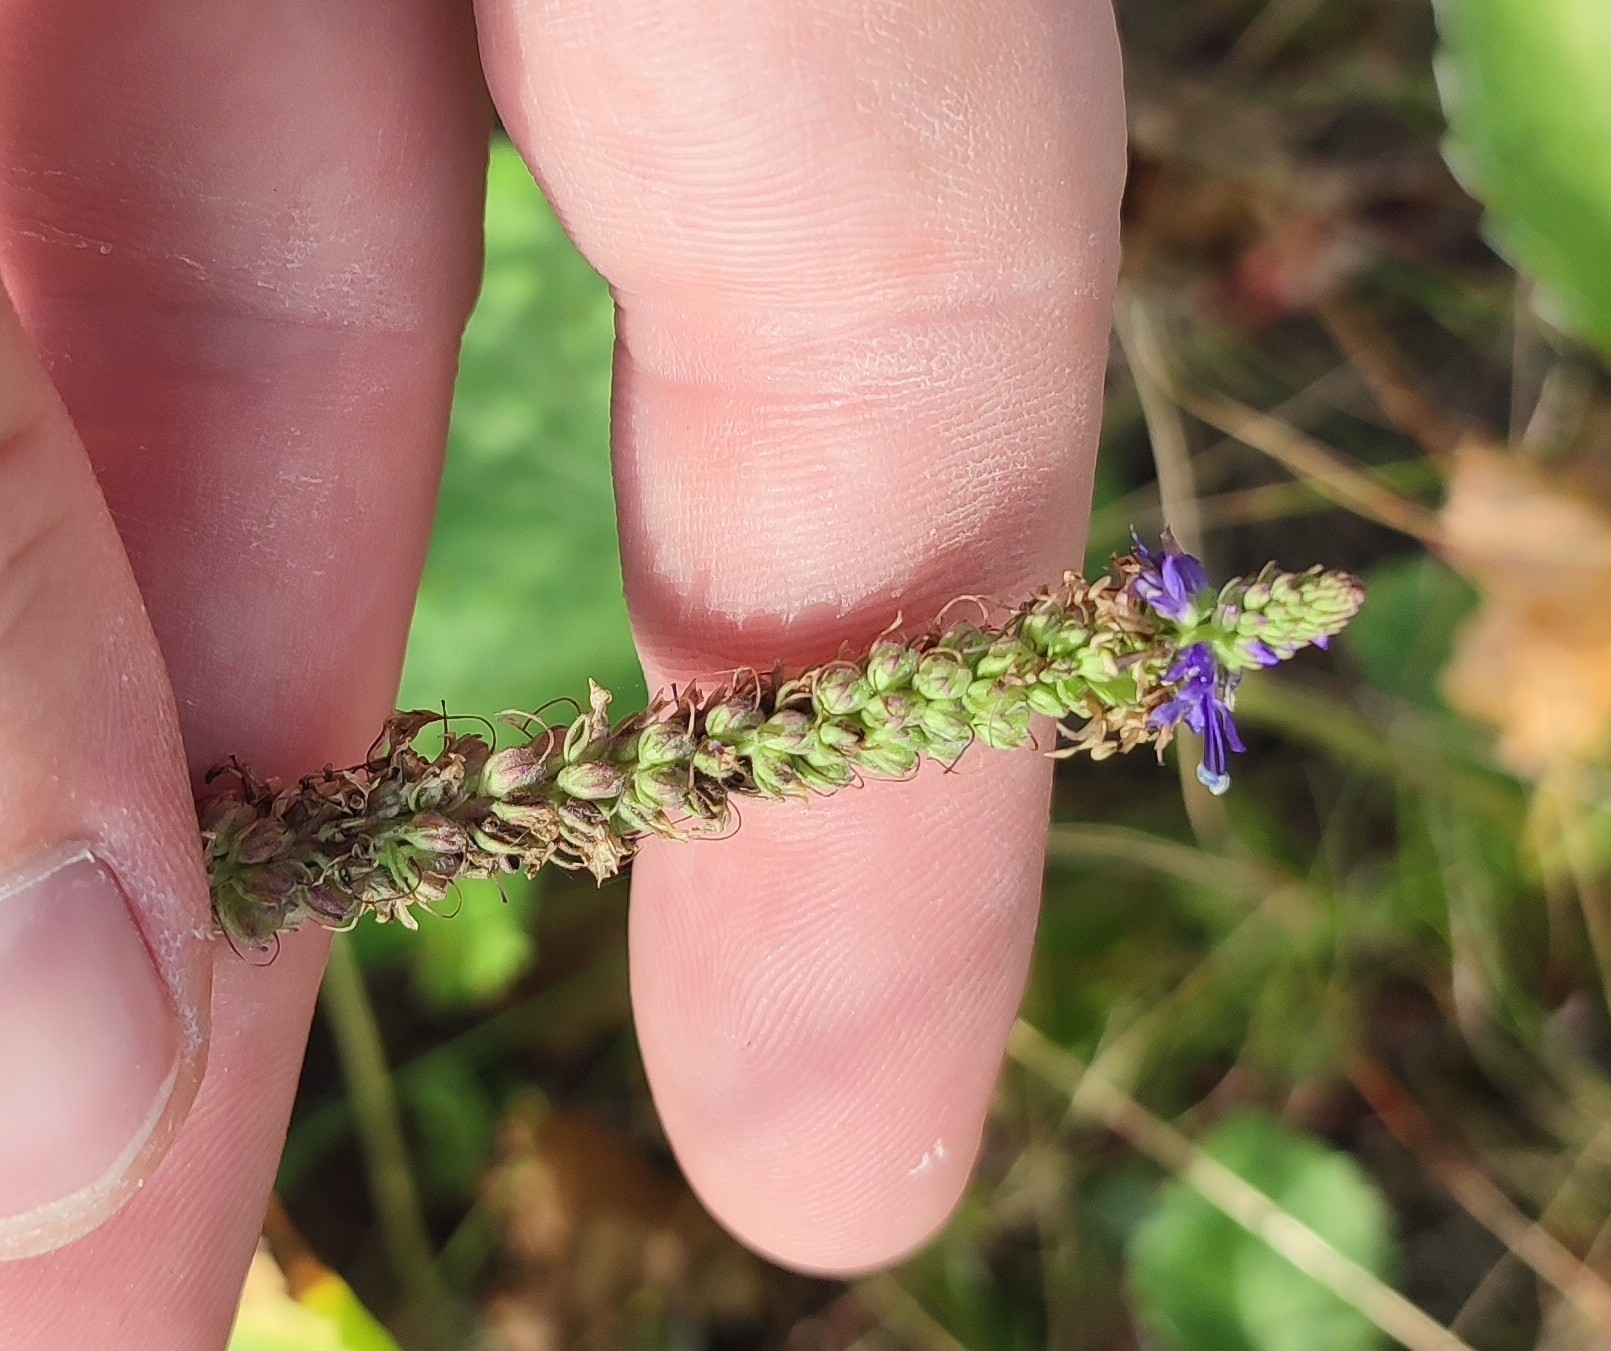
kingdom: Plantae
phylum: Tracheophyta
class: Magnoliopsida
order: Lamiales
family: Plantaginaceae
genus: Veronica
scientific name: Veronica spicata
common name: Spiked speedwell
